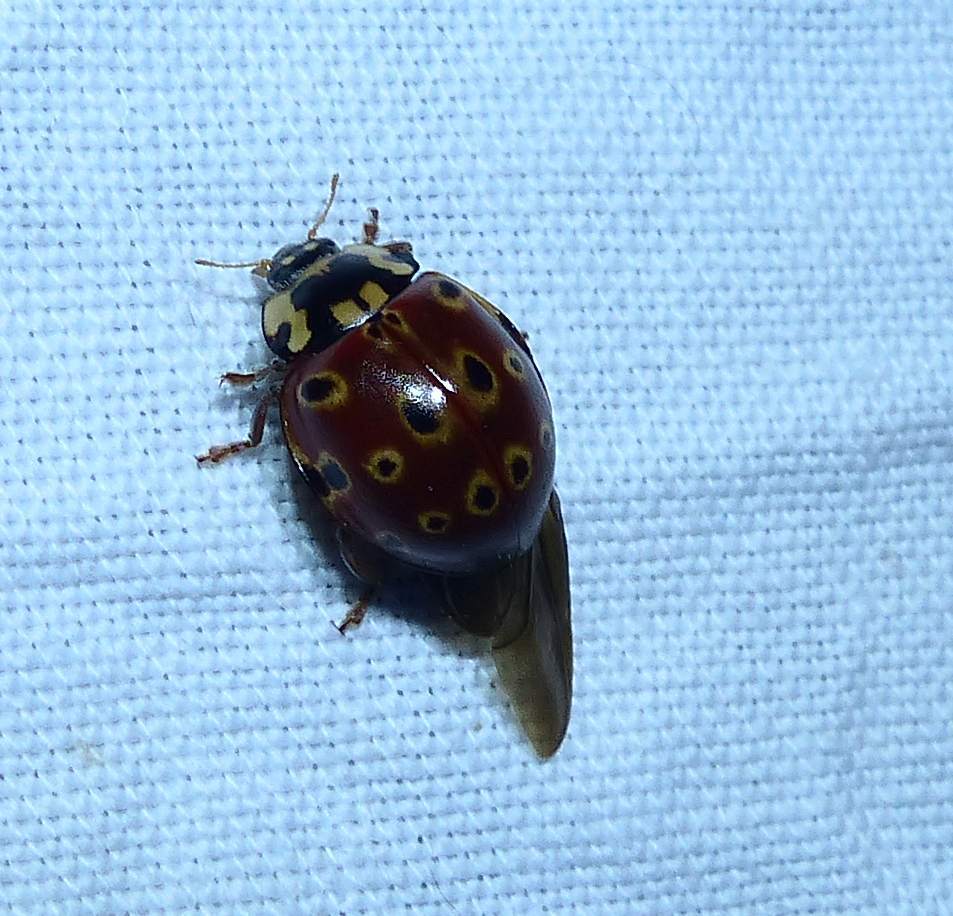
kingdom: Animalia
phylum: Arthropoda
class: Insecta
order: Coleoptera
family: Coccinellidae
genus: Anatis
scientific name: Anatis mali
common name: Eye-spotted lady beetle
